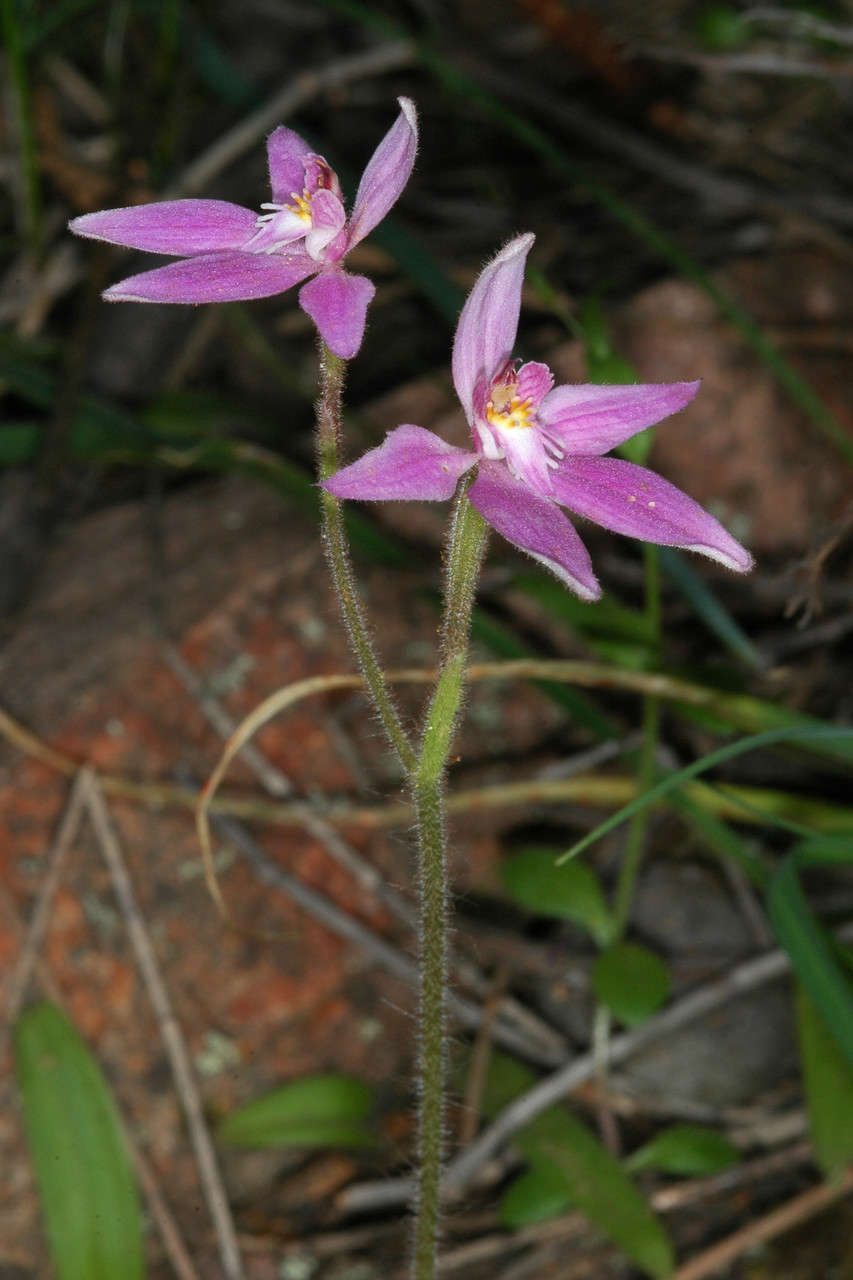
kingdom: Plantae
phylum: Tracheophyta
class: Liliopsida
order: Asparagales
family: Orchidaceae
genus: Caladenia
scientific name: Caladenia latifolia
